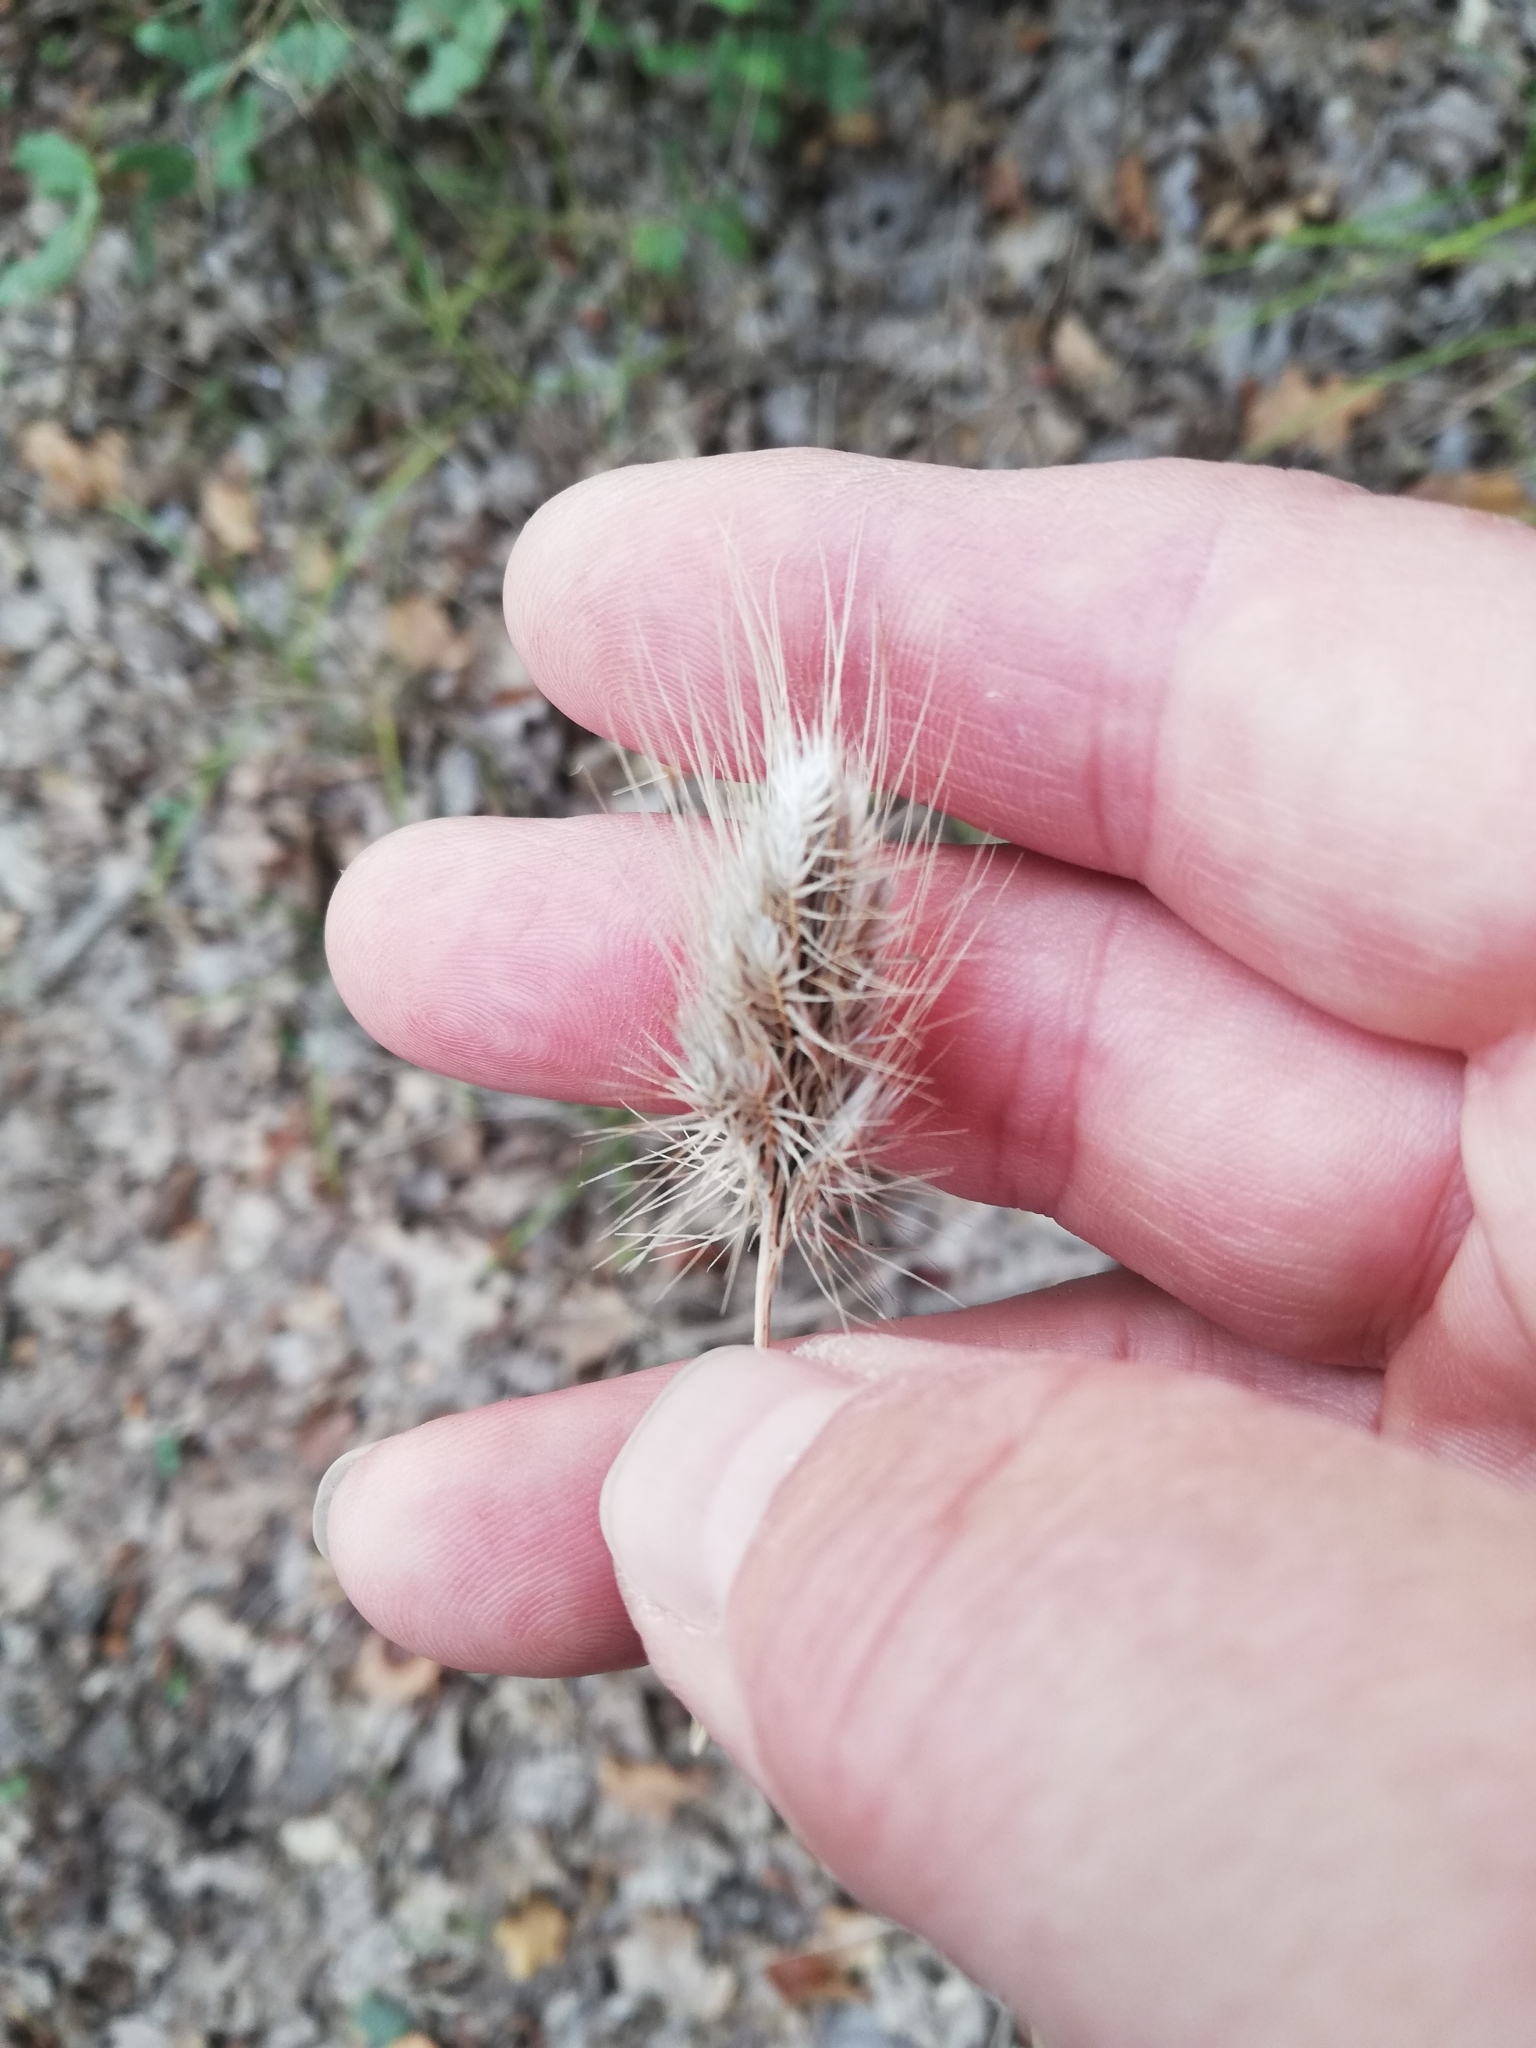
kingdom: Plantae
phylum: Tracheophyta
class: Liliopsida
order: Poales
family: Poaceae
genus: Cynosurus
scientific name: Cynosurus echinatus
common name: Rough dog's-tail
